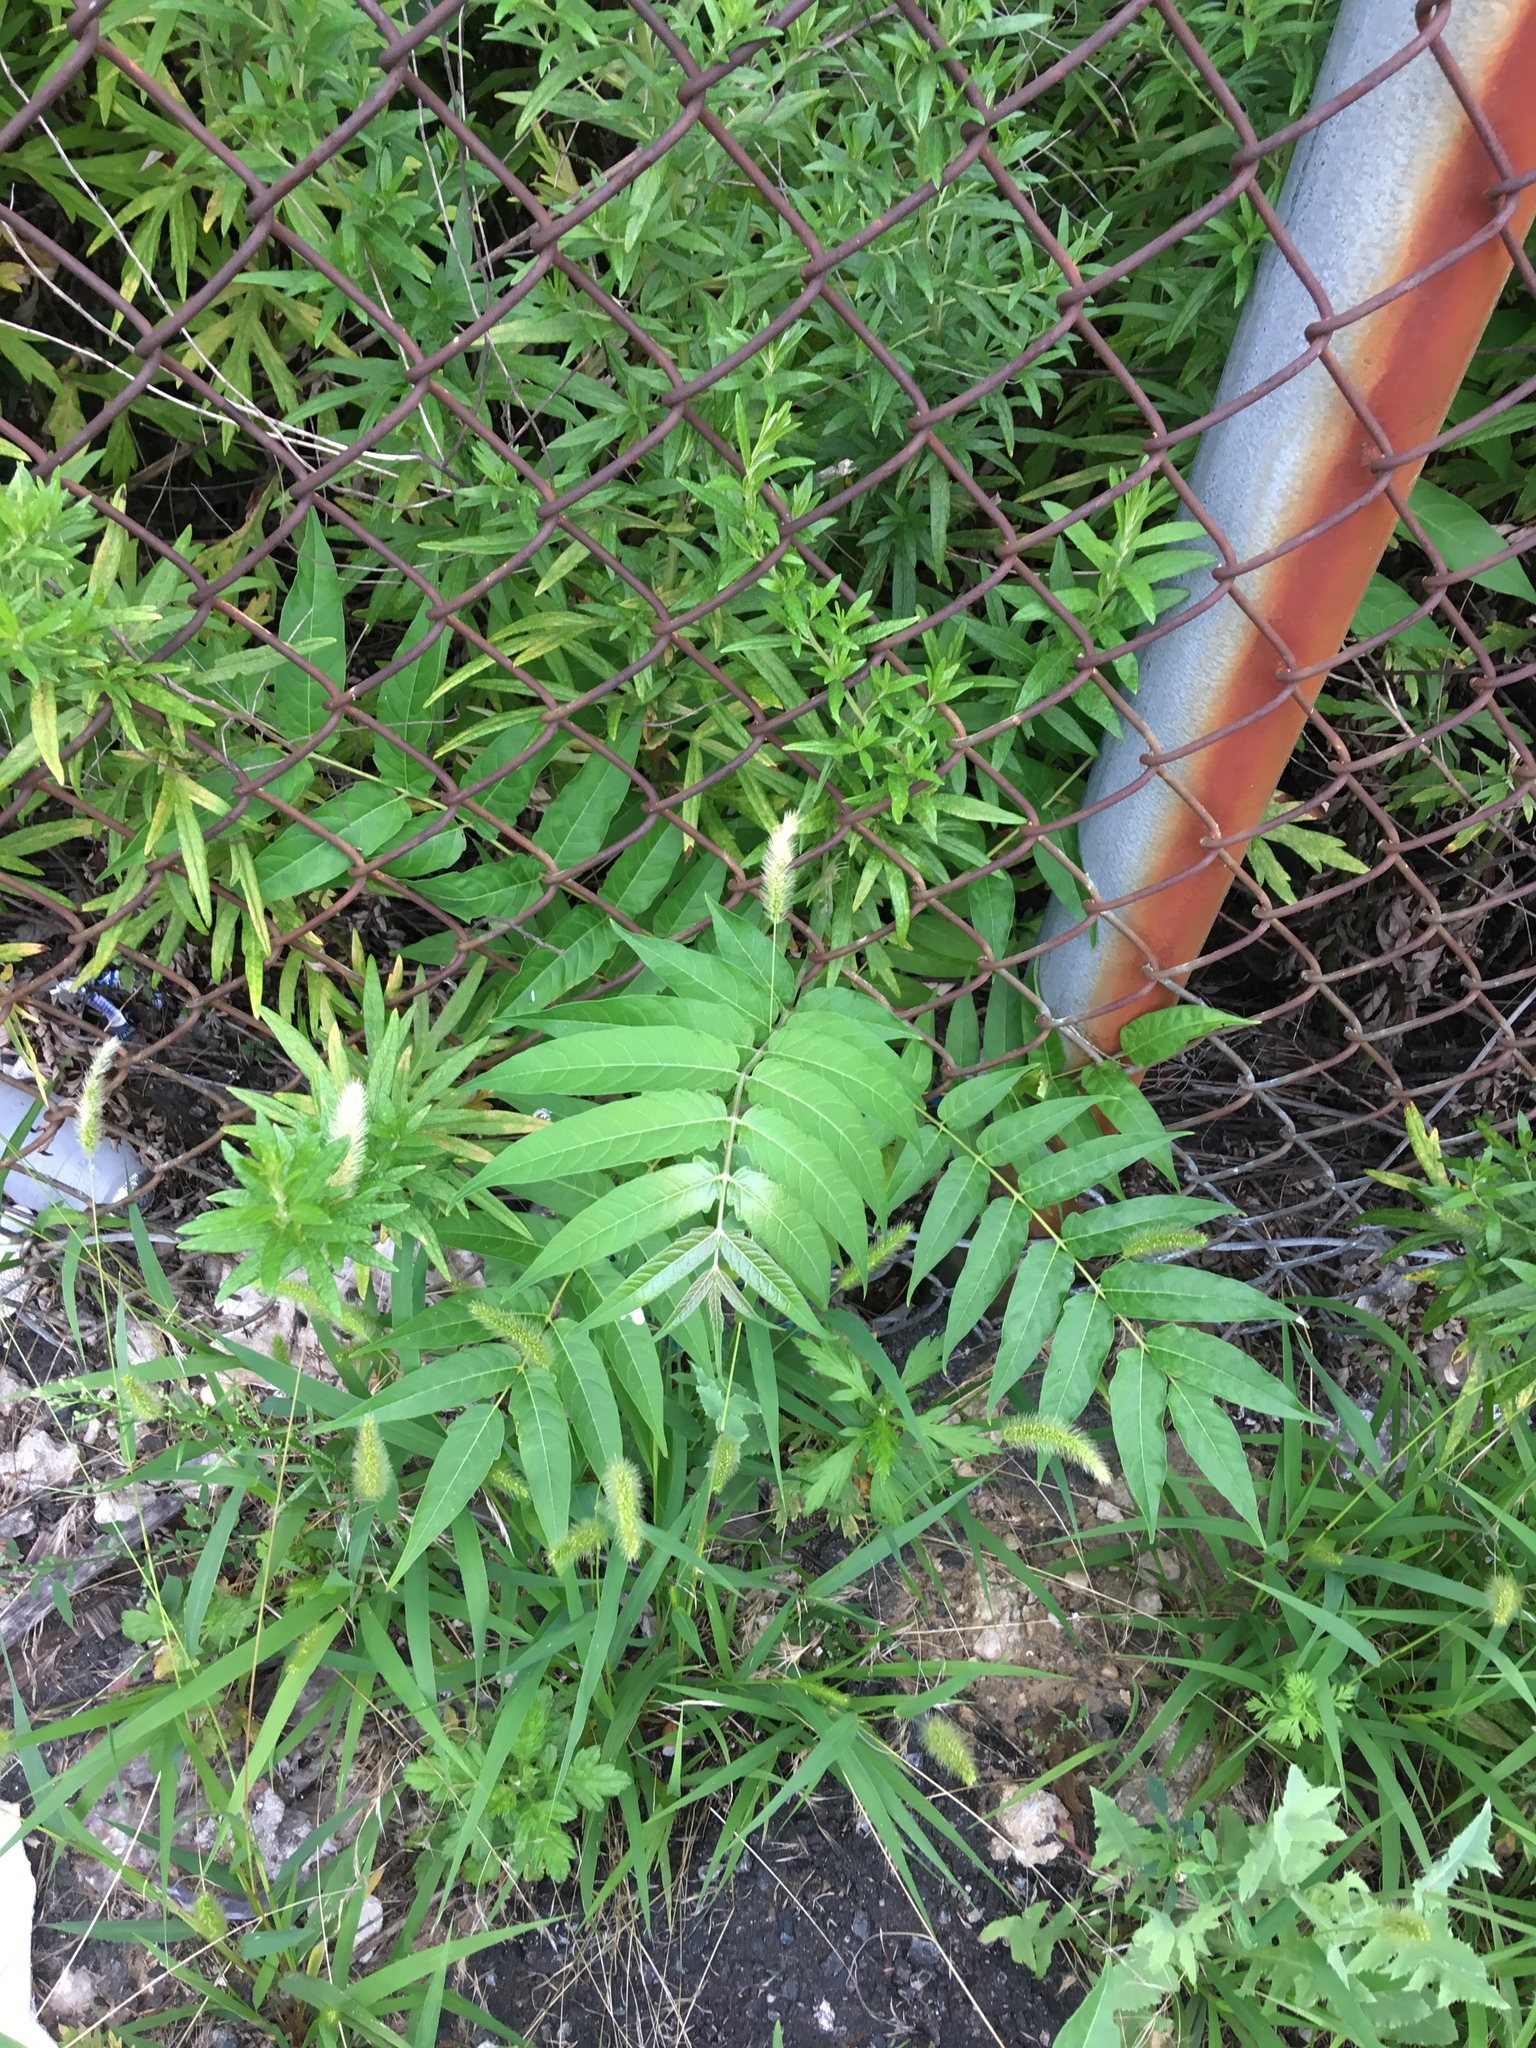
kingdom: Plantae
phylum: Tracheophyta
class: Magnoliopsida
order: Sapindales
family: Simaroubaceae
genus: Ailanthus
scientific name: Ailanthus altissima
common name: Tree-of-heaven
